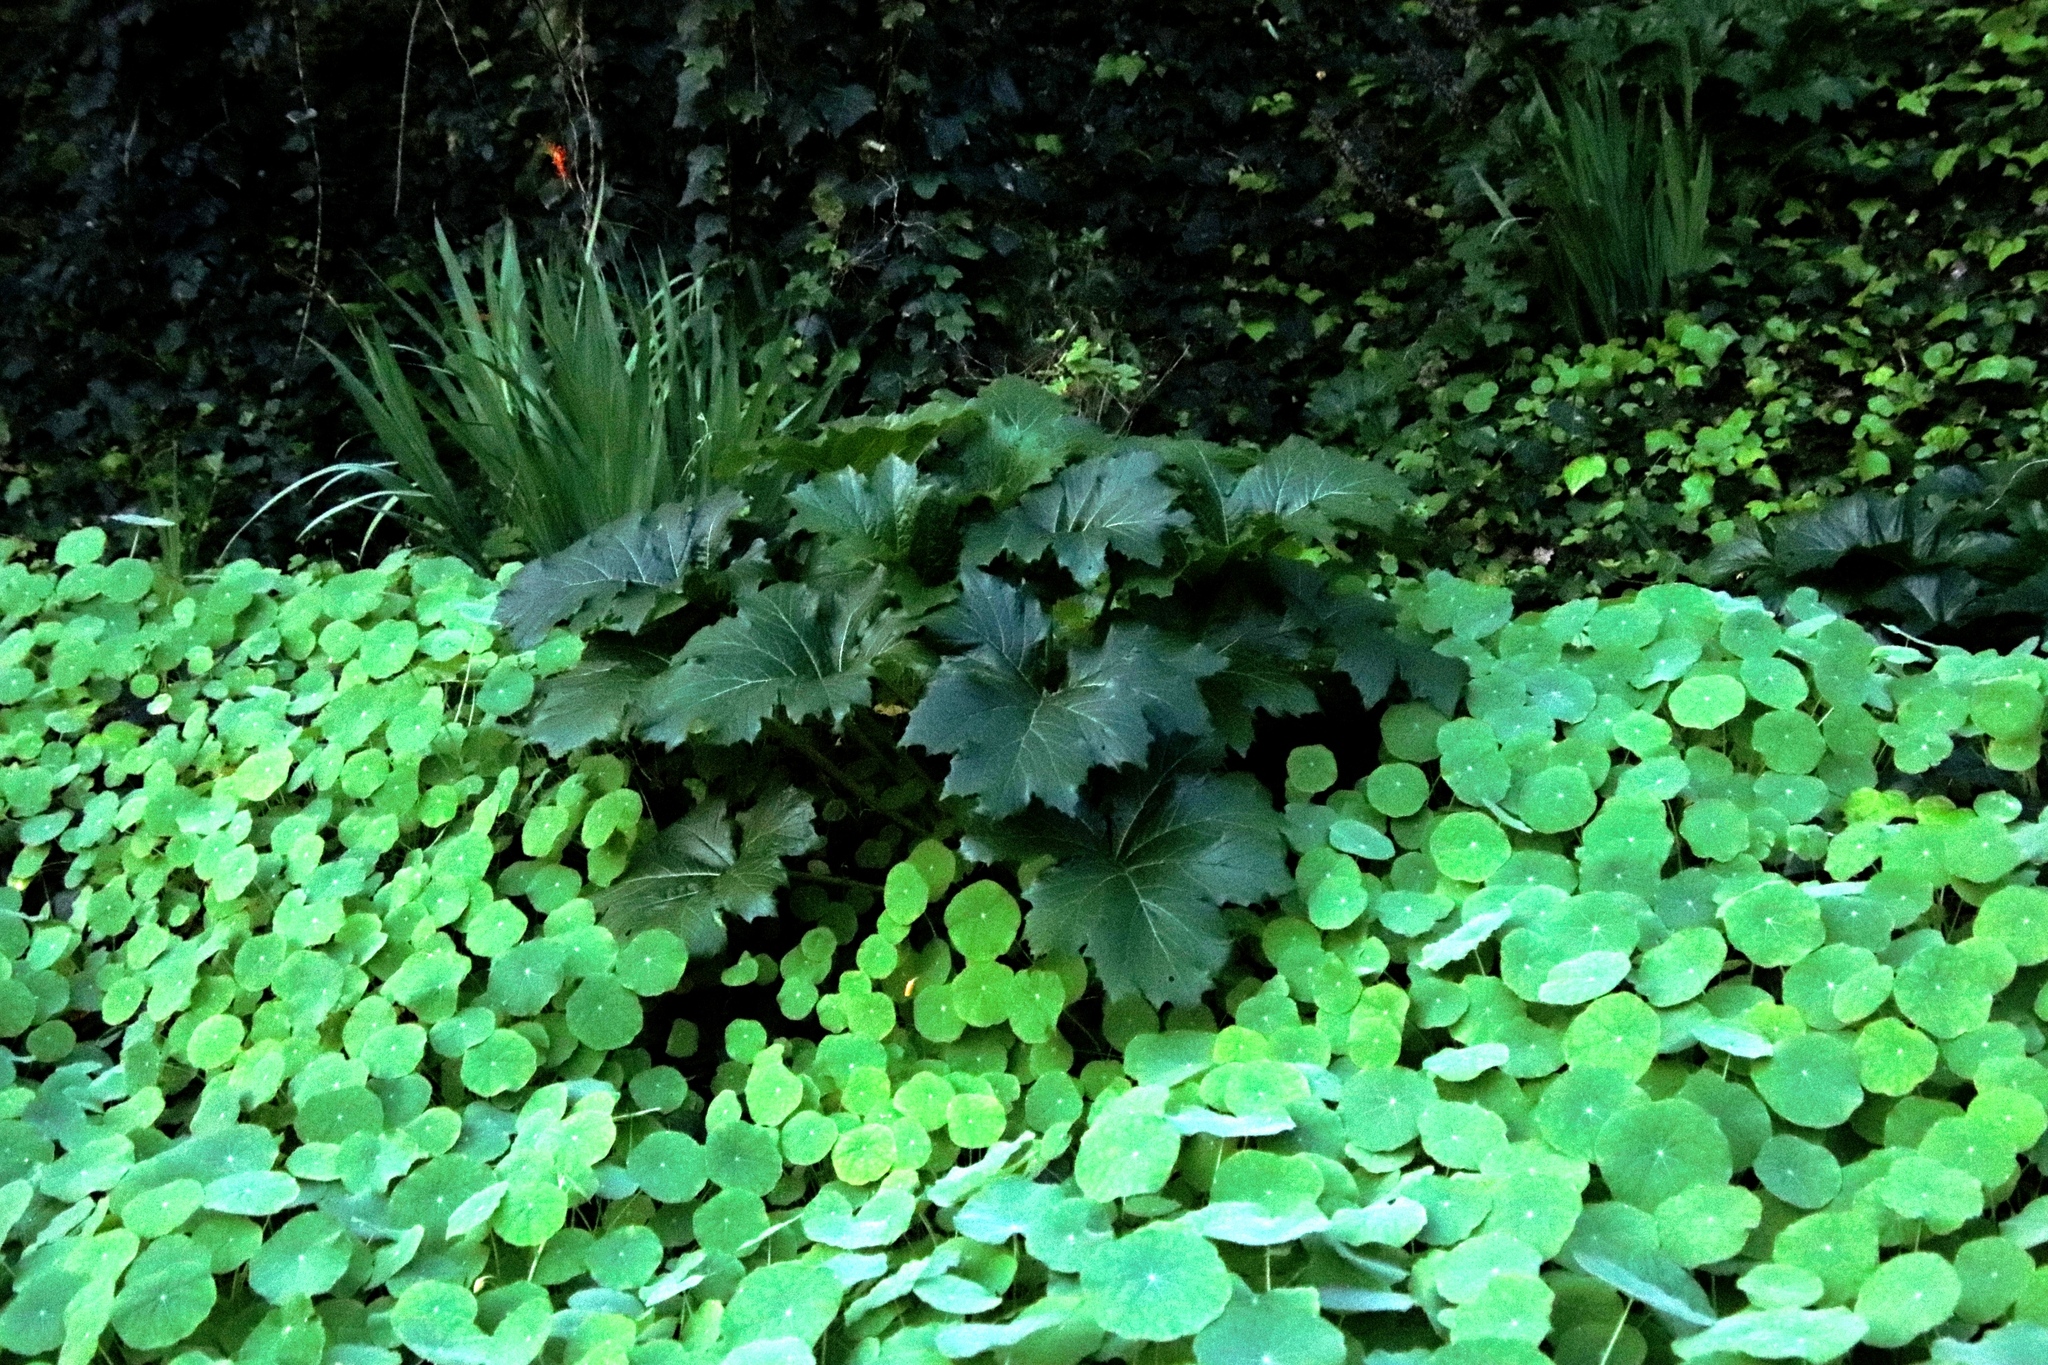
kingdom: Plantae
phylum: Tracheophyta
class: Magnoliopsida
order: Lamiales
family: Acanthaceae
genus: Acanthus
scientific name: Acanthus mollis
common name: Bear's-breech
